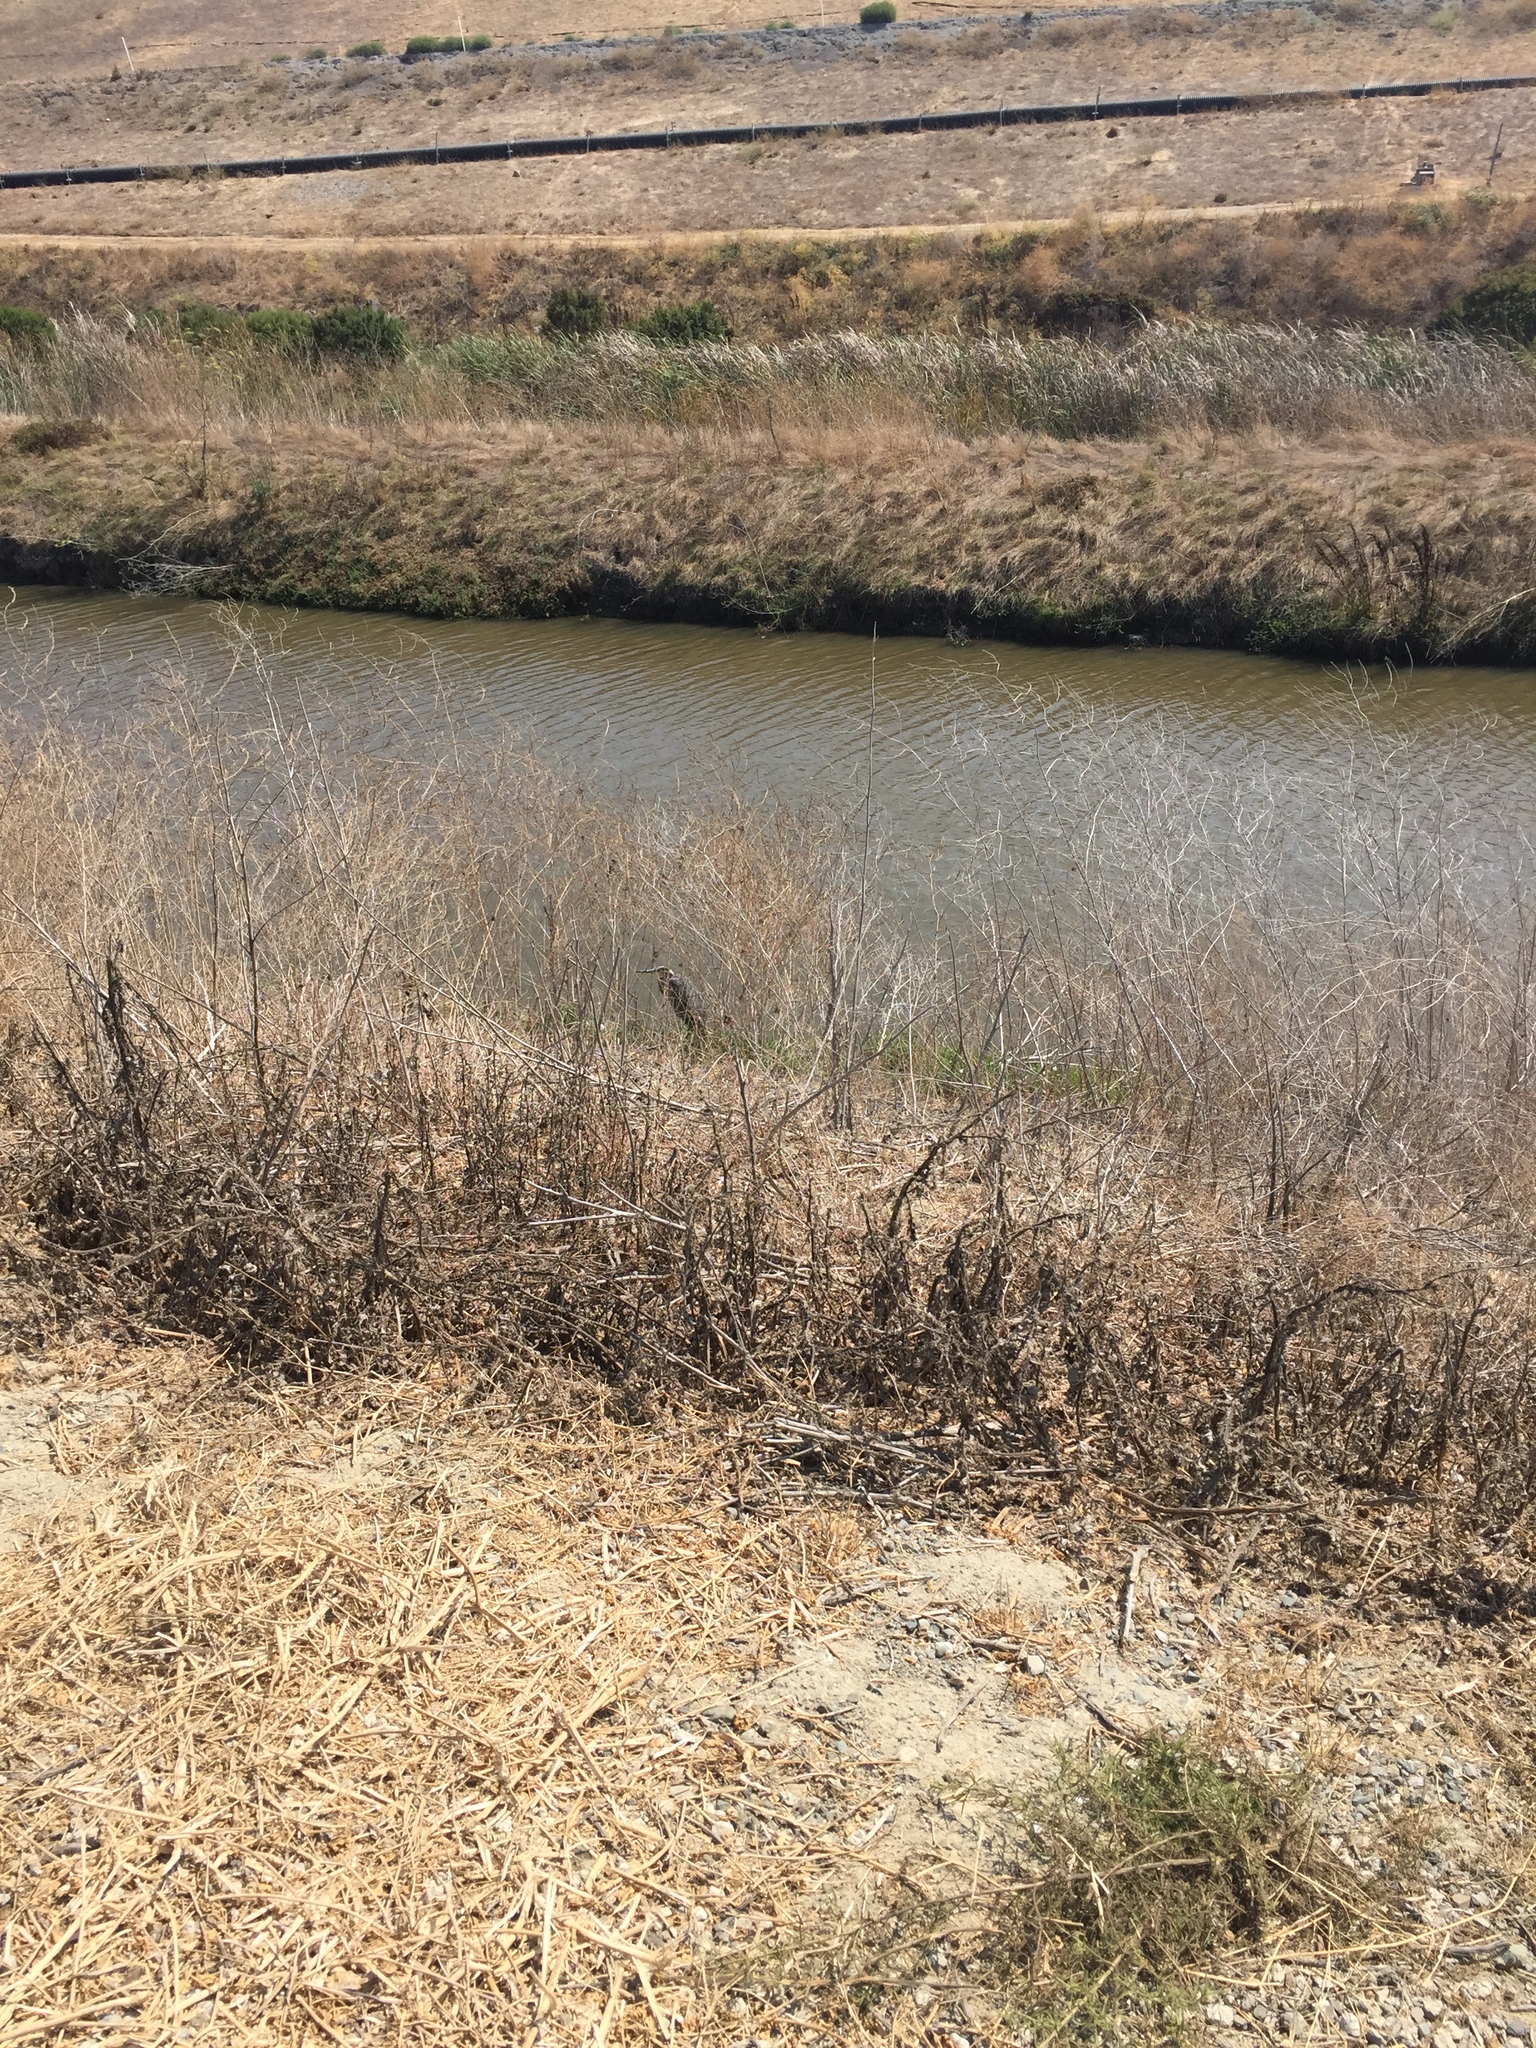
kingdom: Animalia
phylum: Chordata
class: Aves
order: Pelecaniformes
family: Ardeidae
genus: Ardea
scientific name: Ardea herodias
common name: Great blue heron
